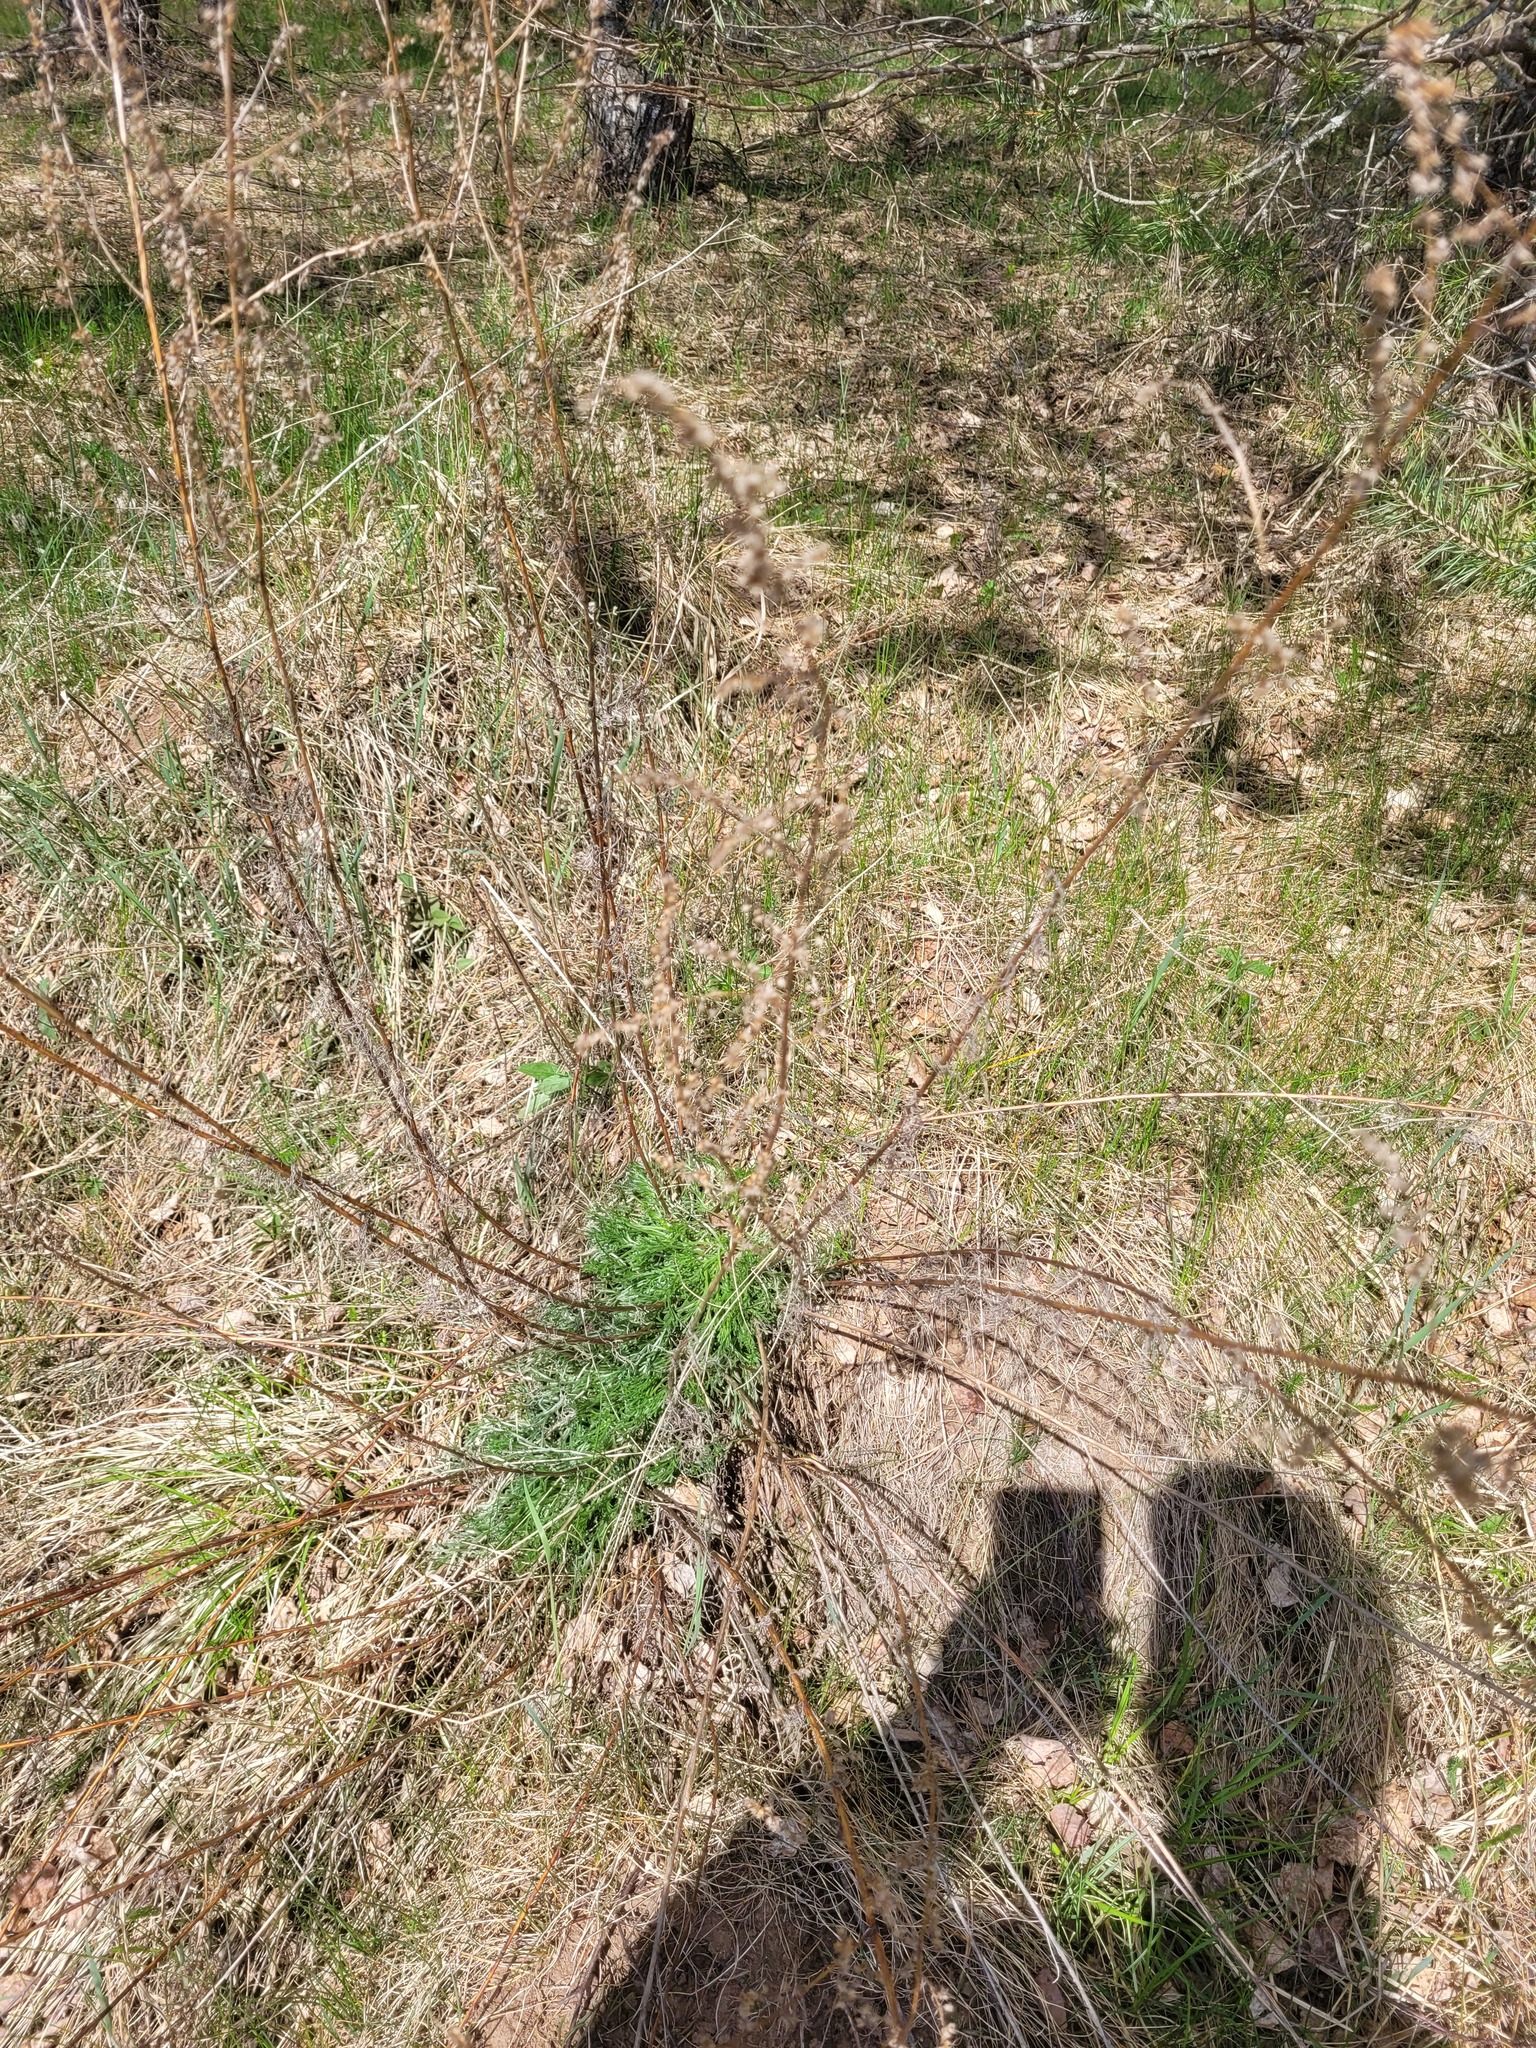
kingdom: Plantae
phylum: Tracheophyta
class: Magnoliopsida
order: Asterales
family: Asteraceae
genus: Artemisia
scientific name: Artemisia campestris
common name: Field wormwood
